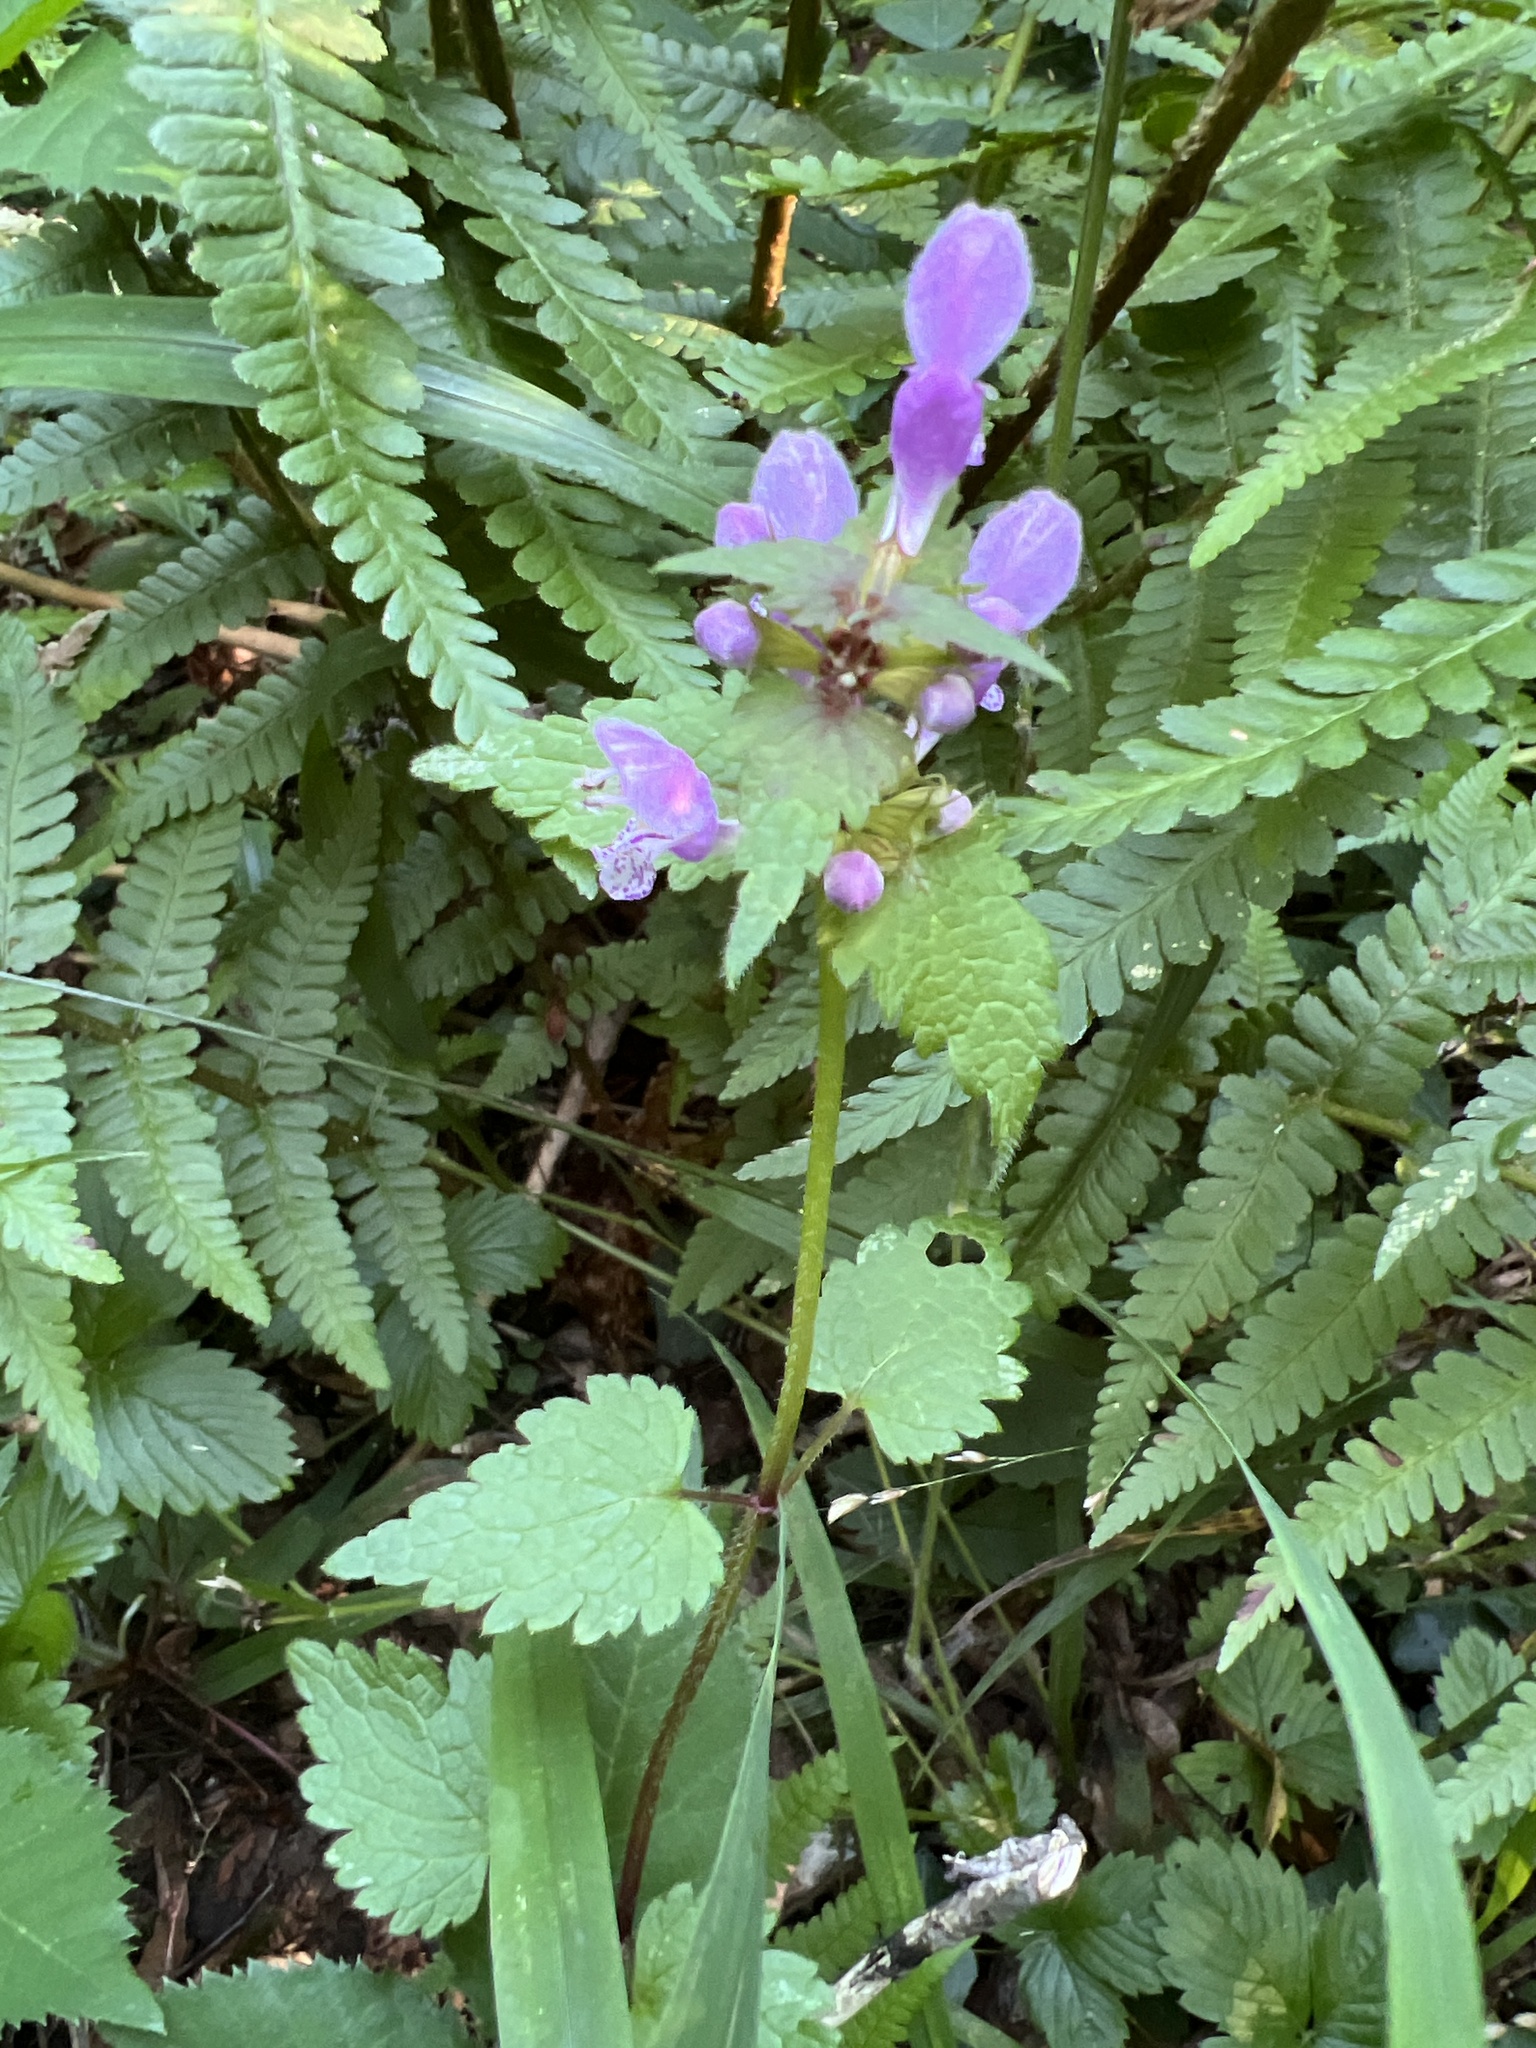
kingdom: Plantae
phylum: Tracheophyta
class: Magnoliopsida
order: Lamiales
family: Lamiaceae
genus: Lamium
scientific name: Lamium maculatum
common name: Spotted dead-nettle
